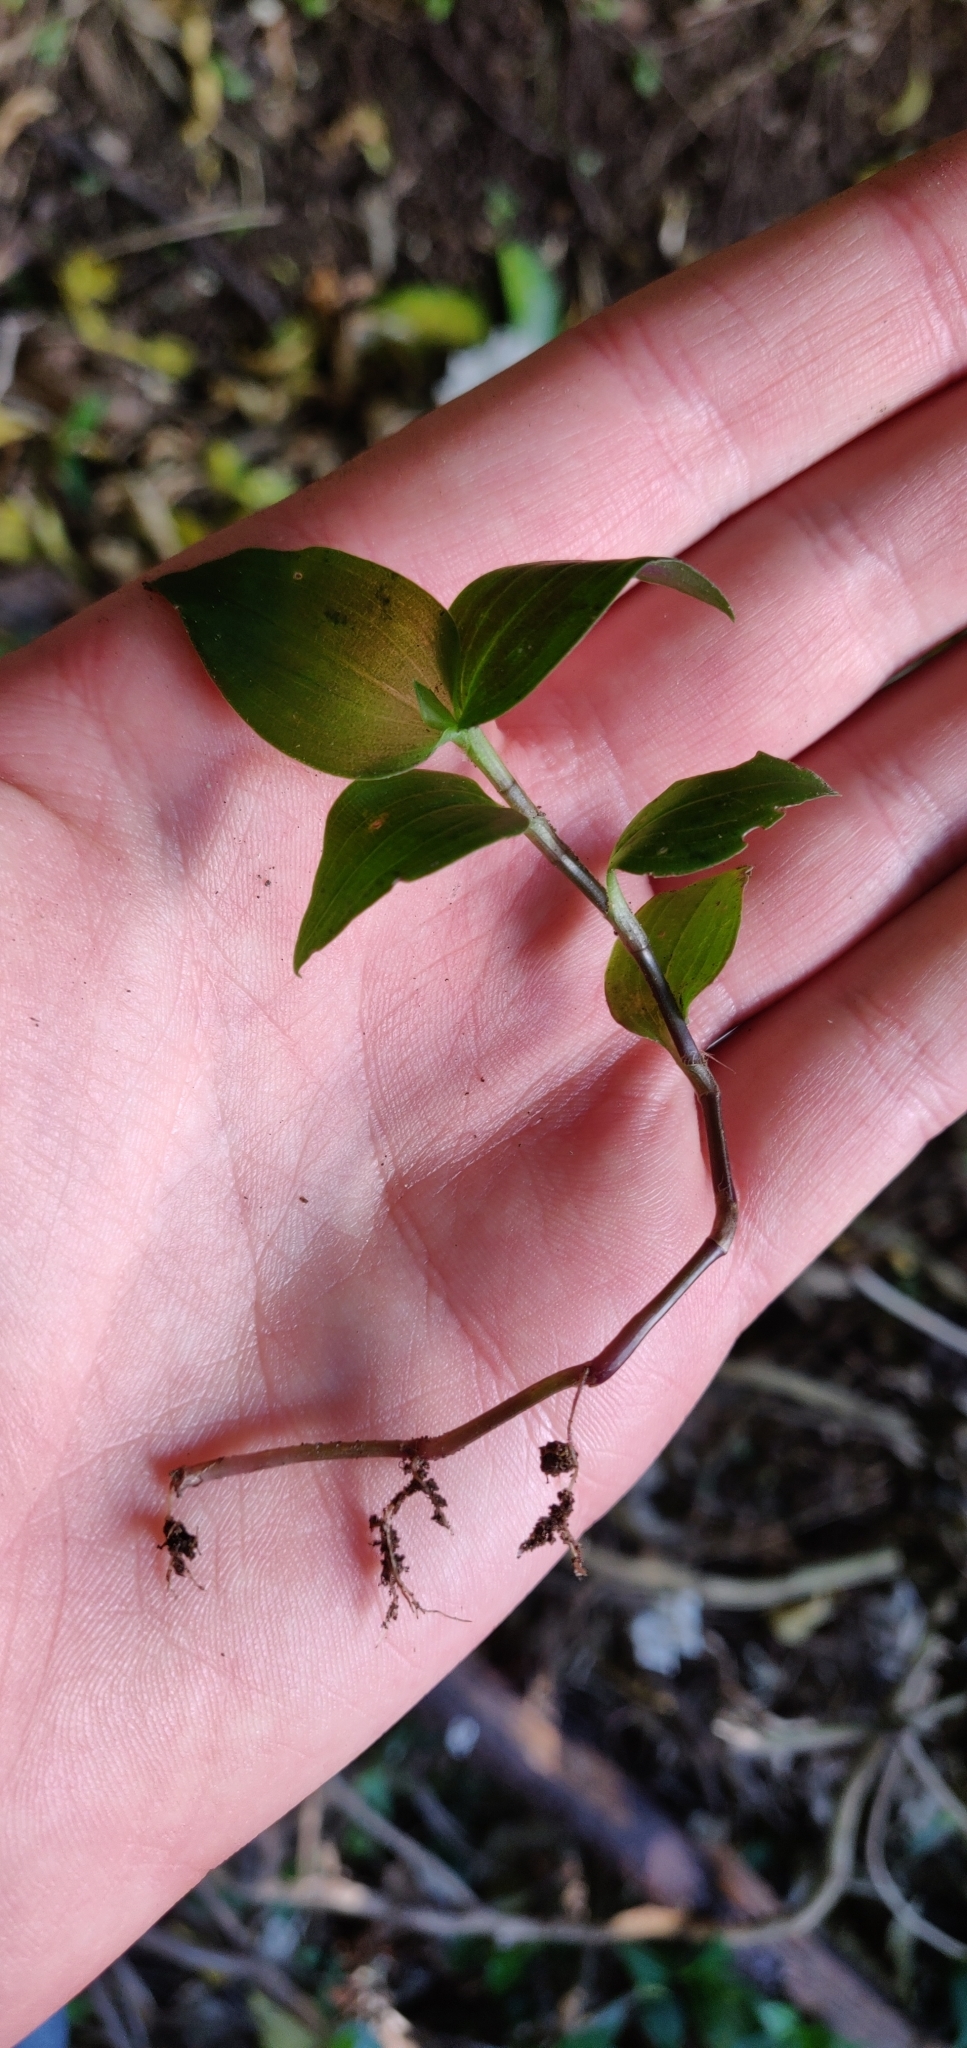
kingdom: Plantae
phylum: Tracheophyta
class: Liliopsida
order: Commelinales
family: Commelinaceae
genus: Tradescantia
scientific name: Tradescantia fluminensis
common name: Wandering-jew
